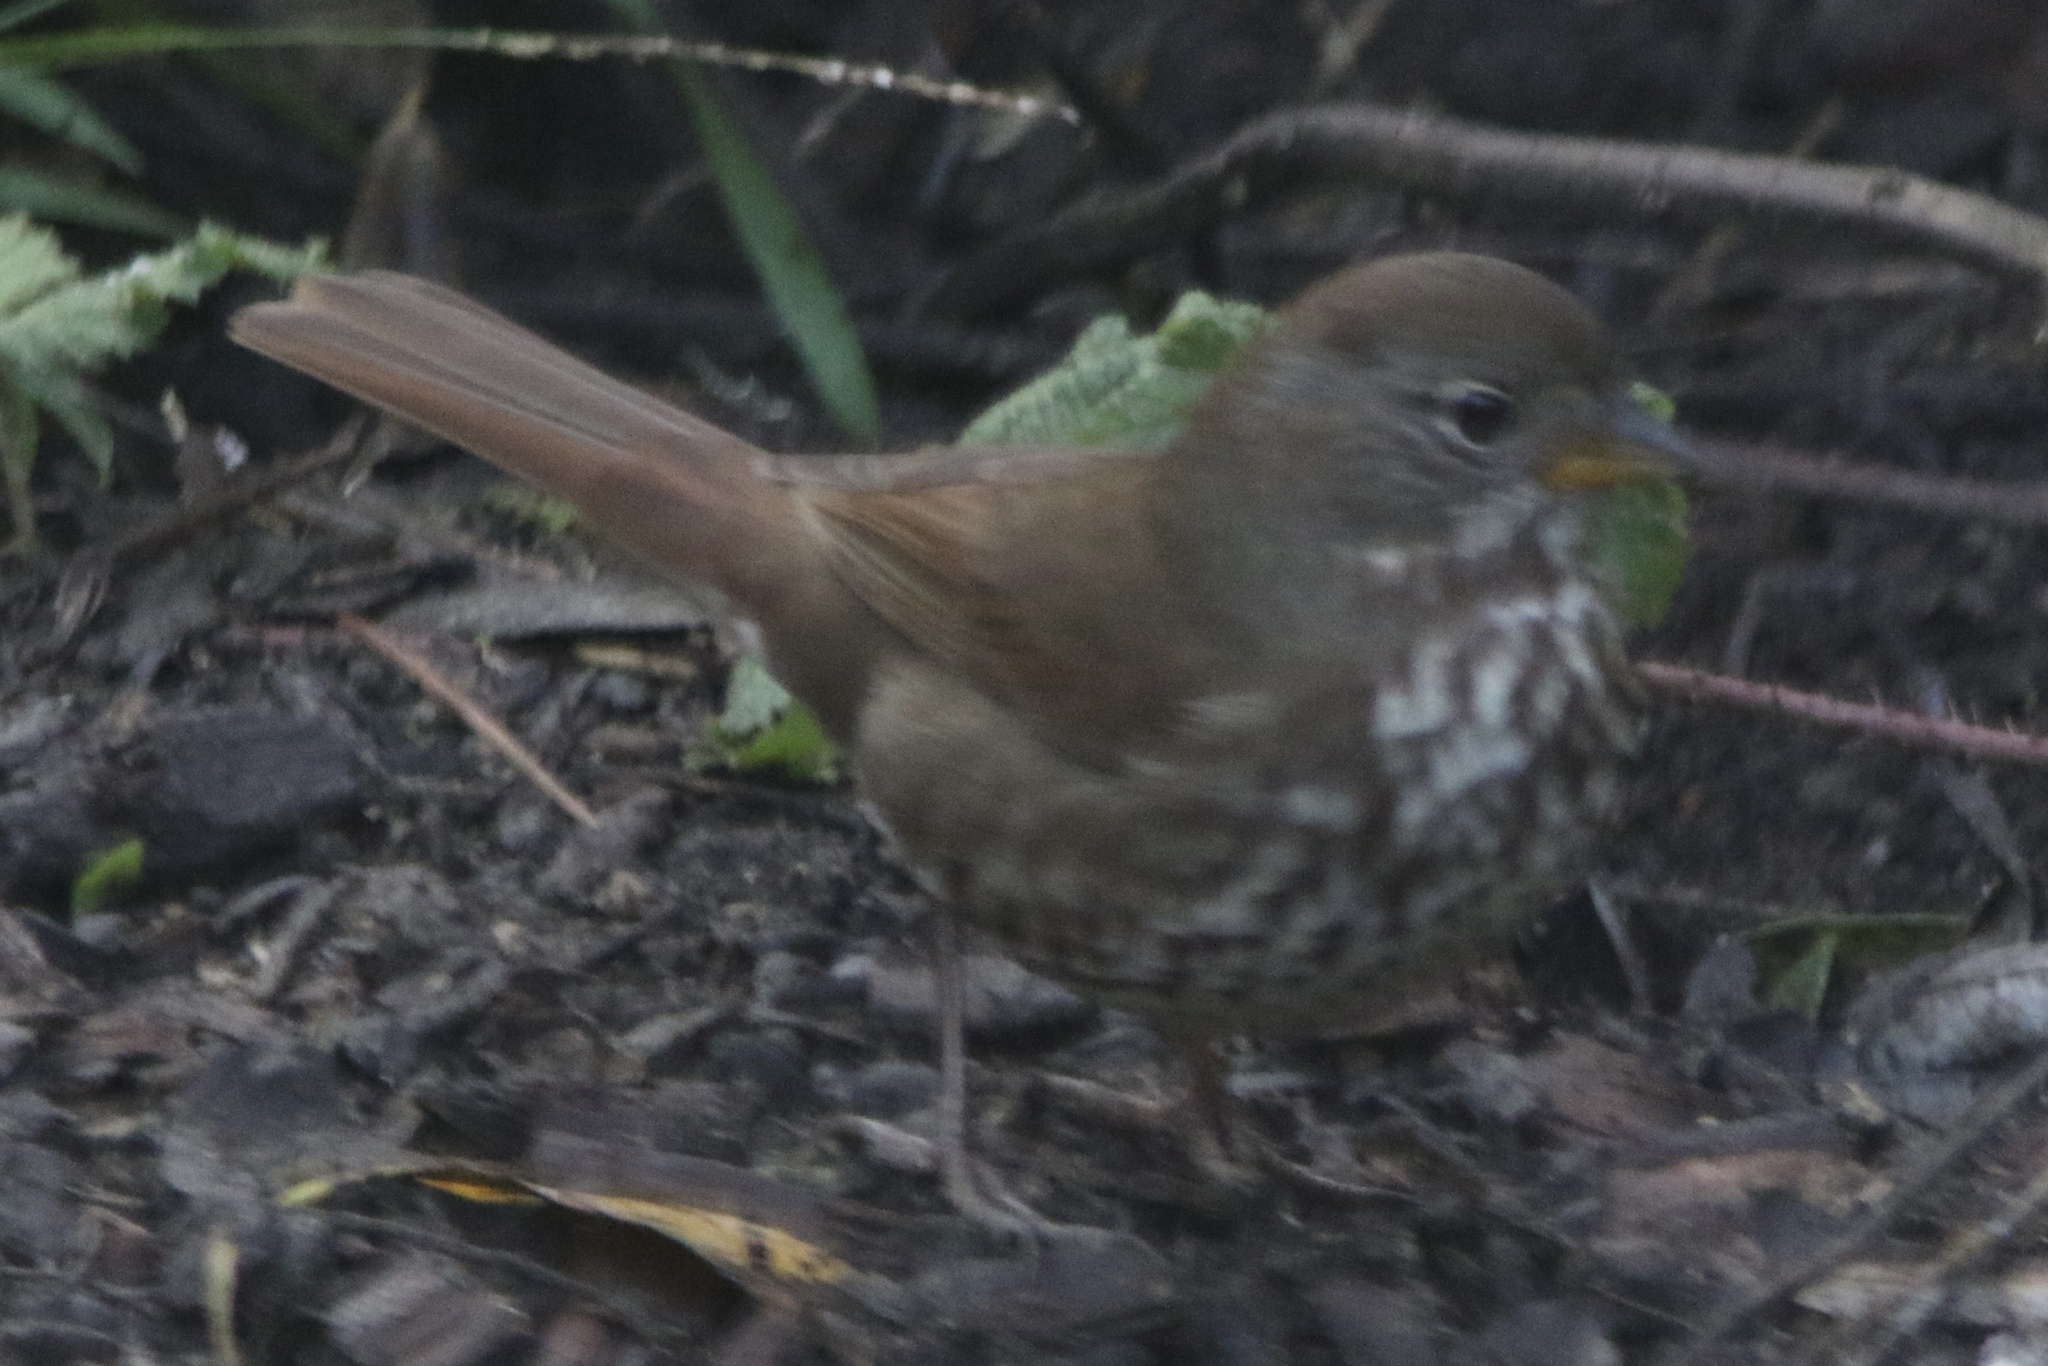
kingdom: Animalia
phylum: Chordata
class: Aves
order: Passeriformes
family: Passerellidae
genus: Passerella
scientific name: Passerella iliaca
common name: Fox sparrow
